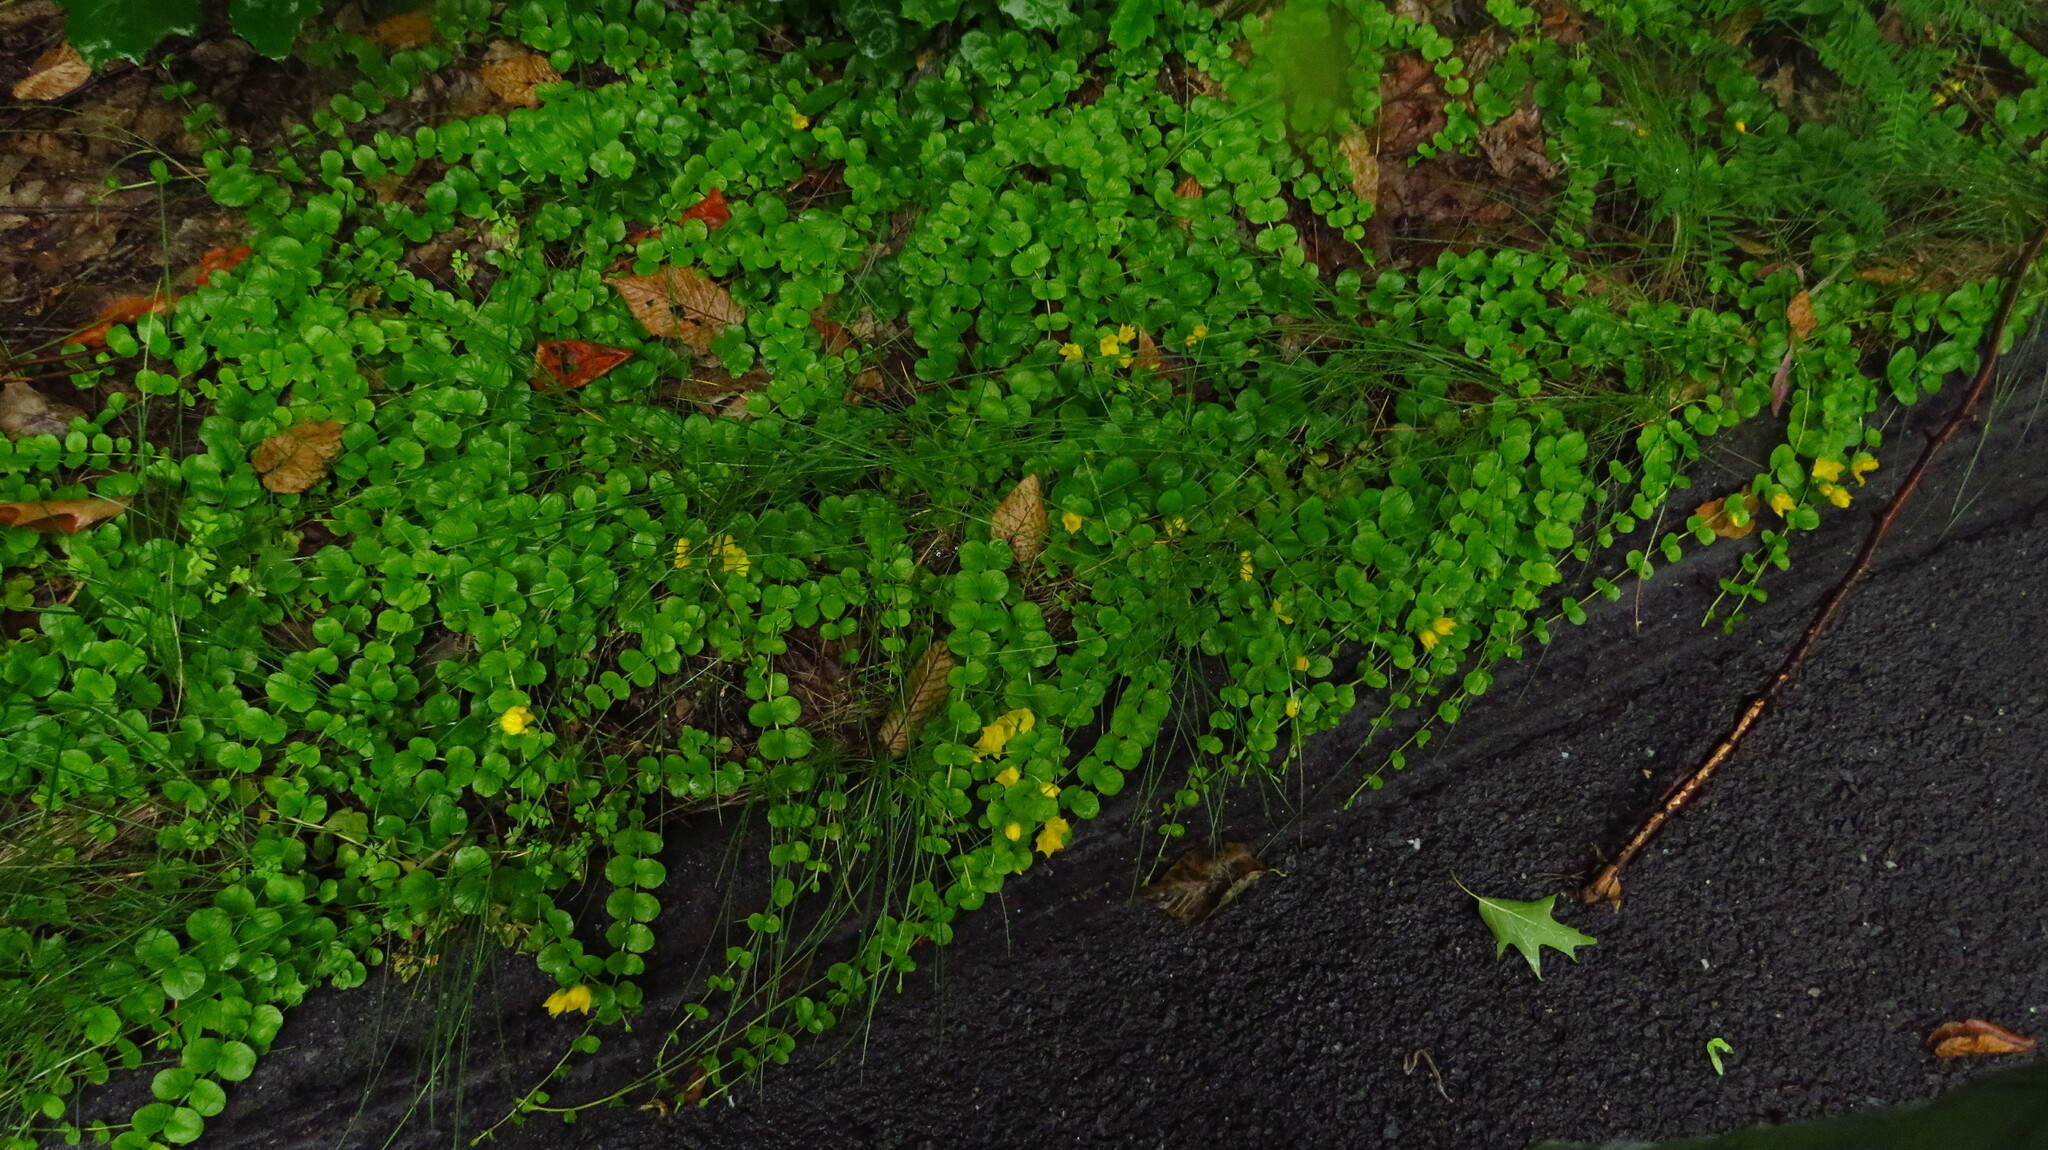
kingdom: Plantae
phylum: Tracheophyta
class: Magnoliopsida
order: Ericales
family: Primulaceae
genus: Lysimachia
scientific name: Lysimachia nummularia
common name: Moneywort
